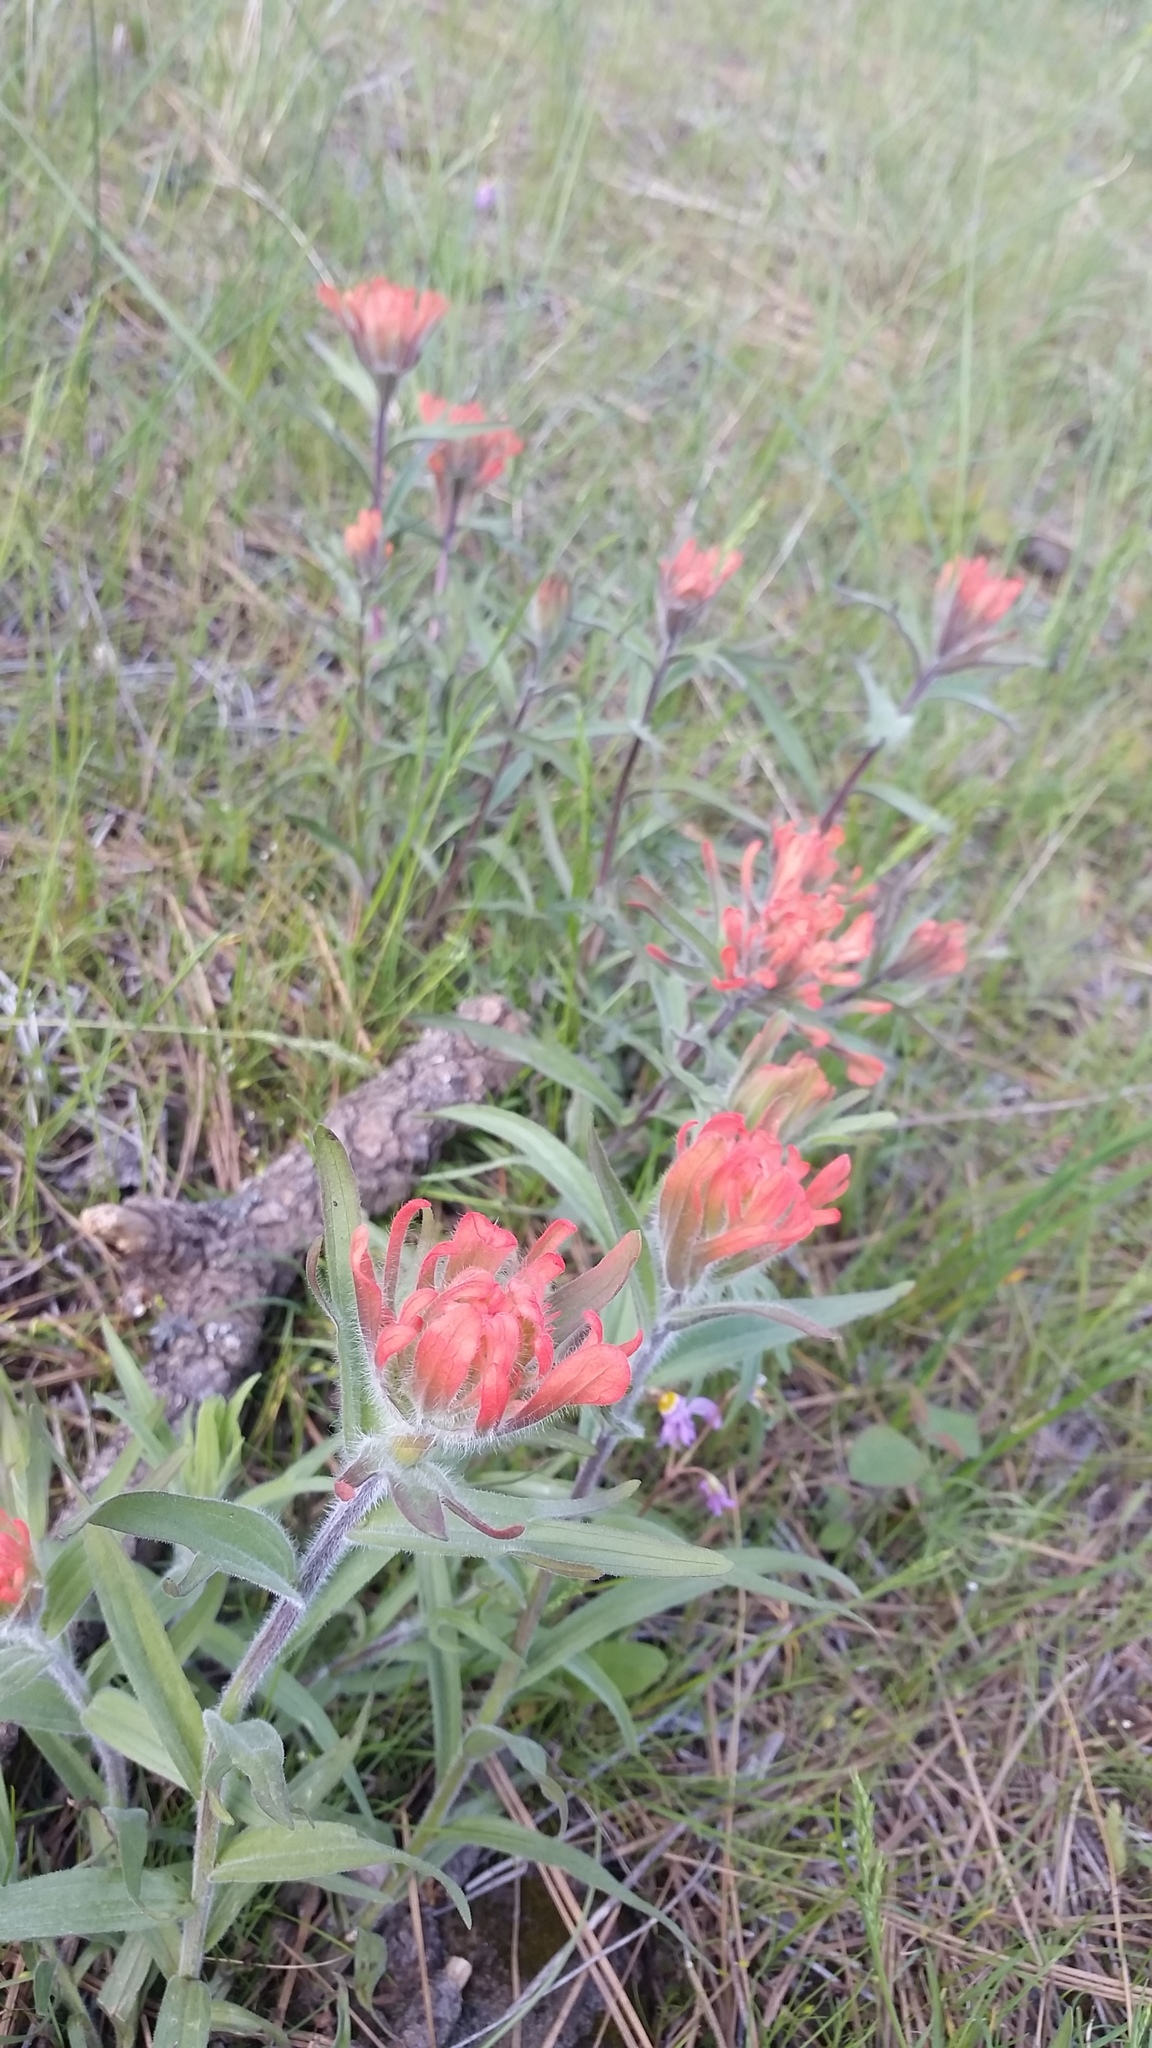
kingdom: Plantae
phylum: Tracheophyta
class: Magnoliopsida
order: Lamiales
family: Orobanchaceae
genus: Castilleja
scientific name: Castilleja hispida
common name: Bristly paintbrush
